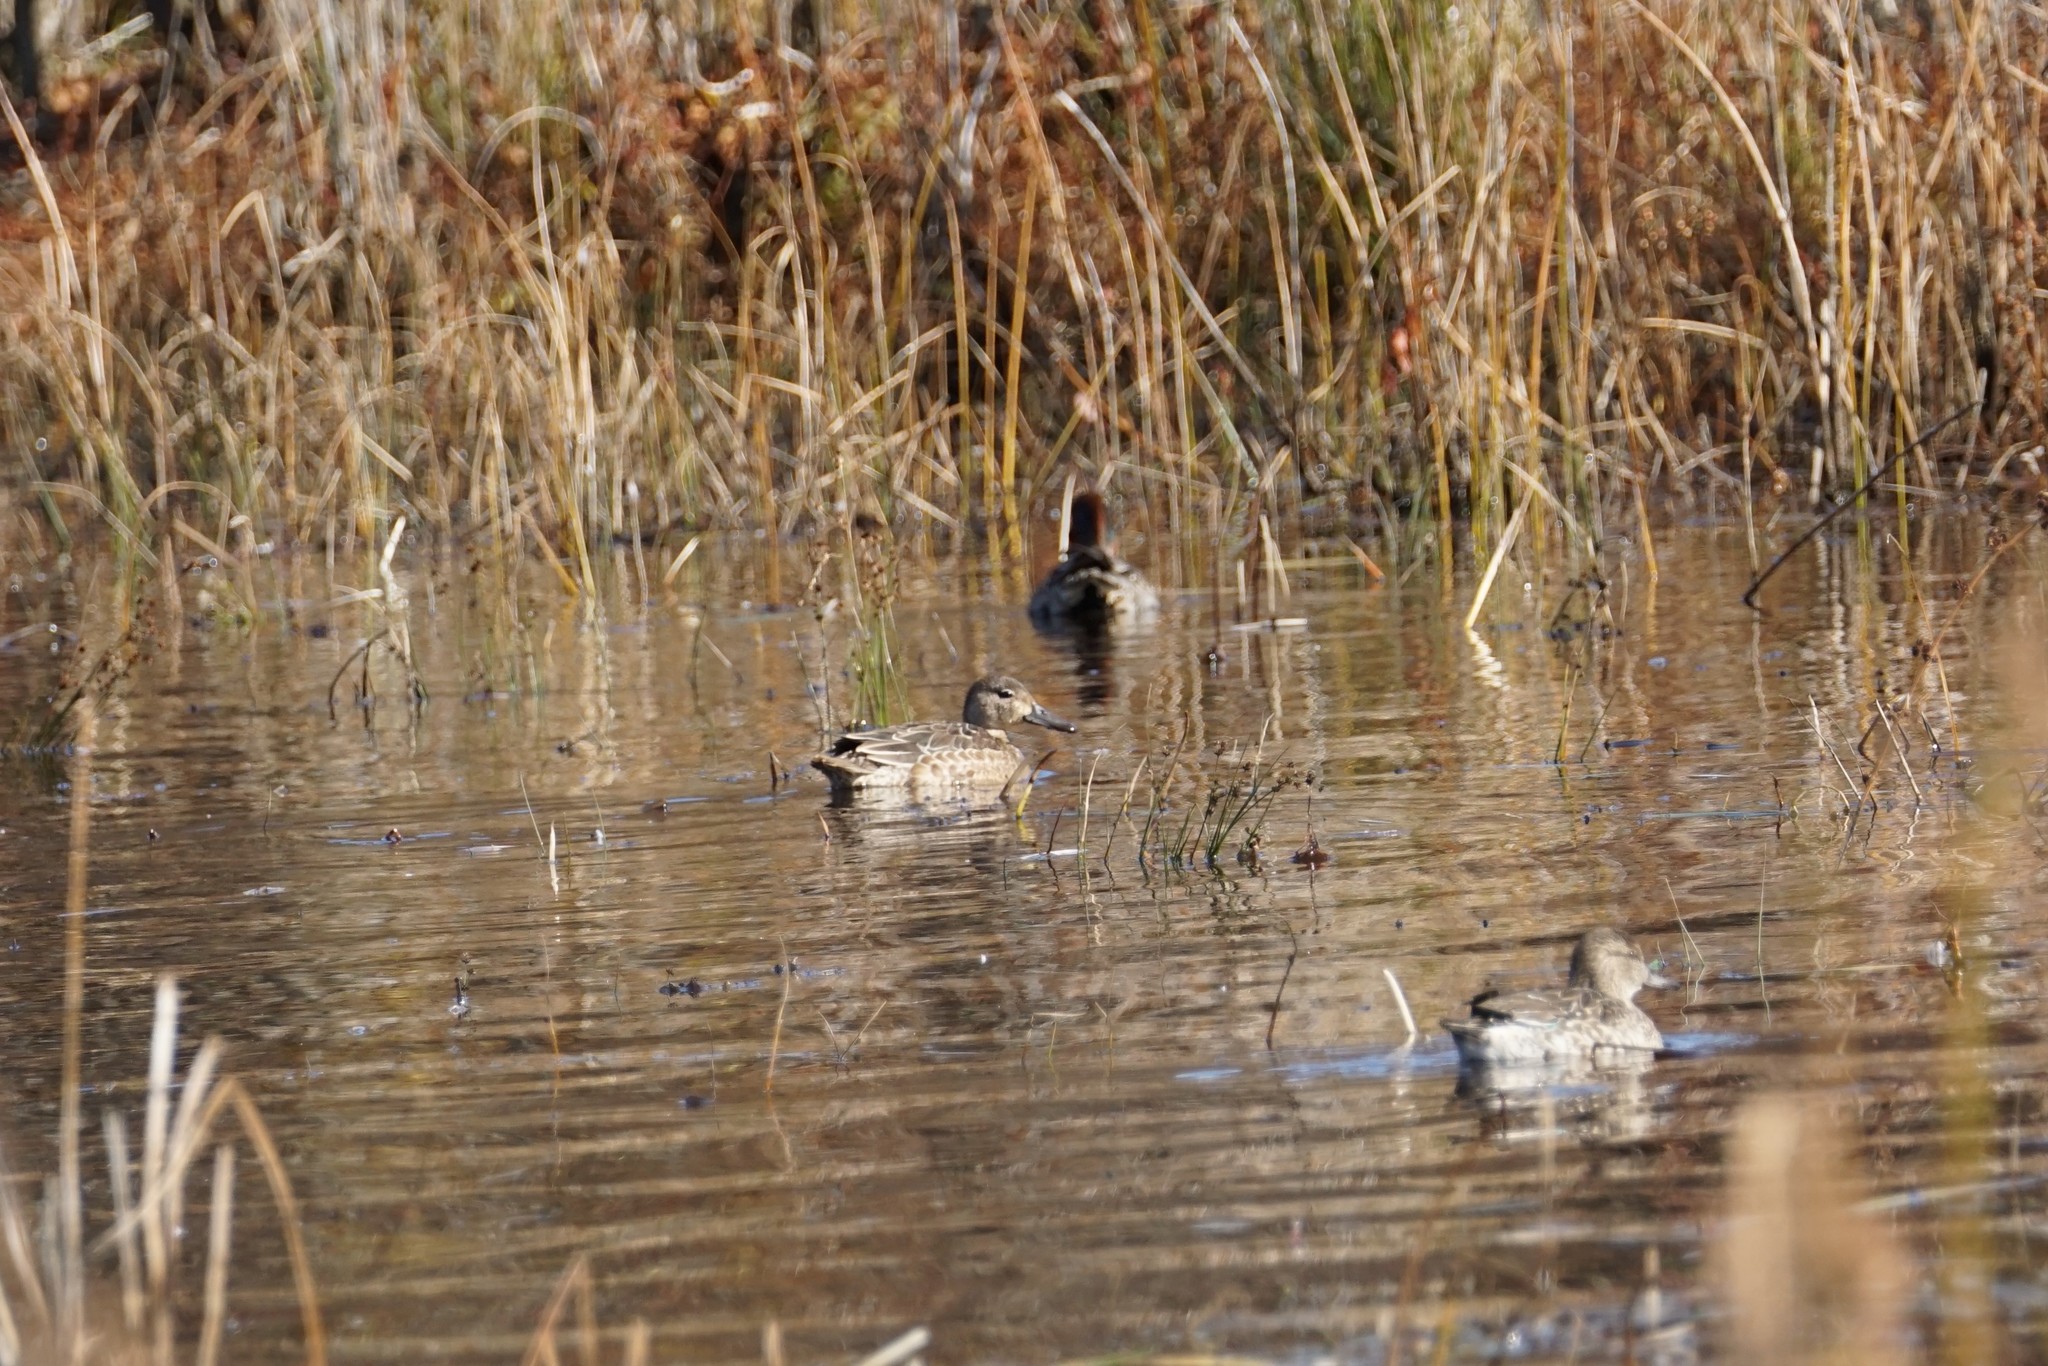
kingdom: Animalia
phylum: Chordata
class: Aves
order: Anseriformes
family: Anatidae
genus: Spatula
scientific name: Spatula discors
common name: Blue-winged teal
